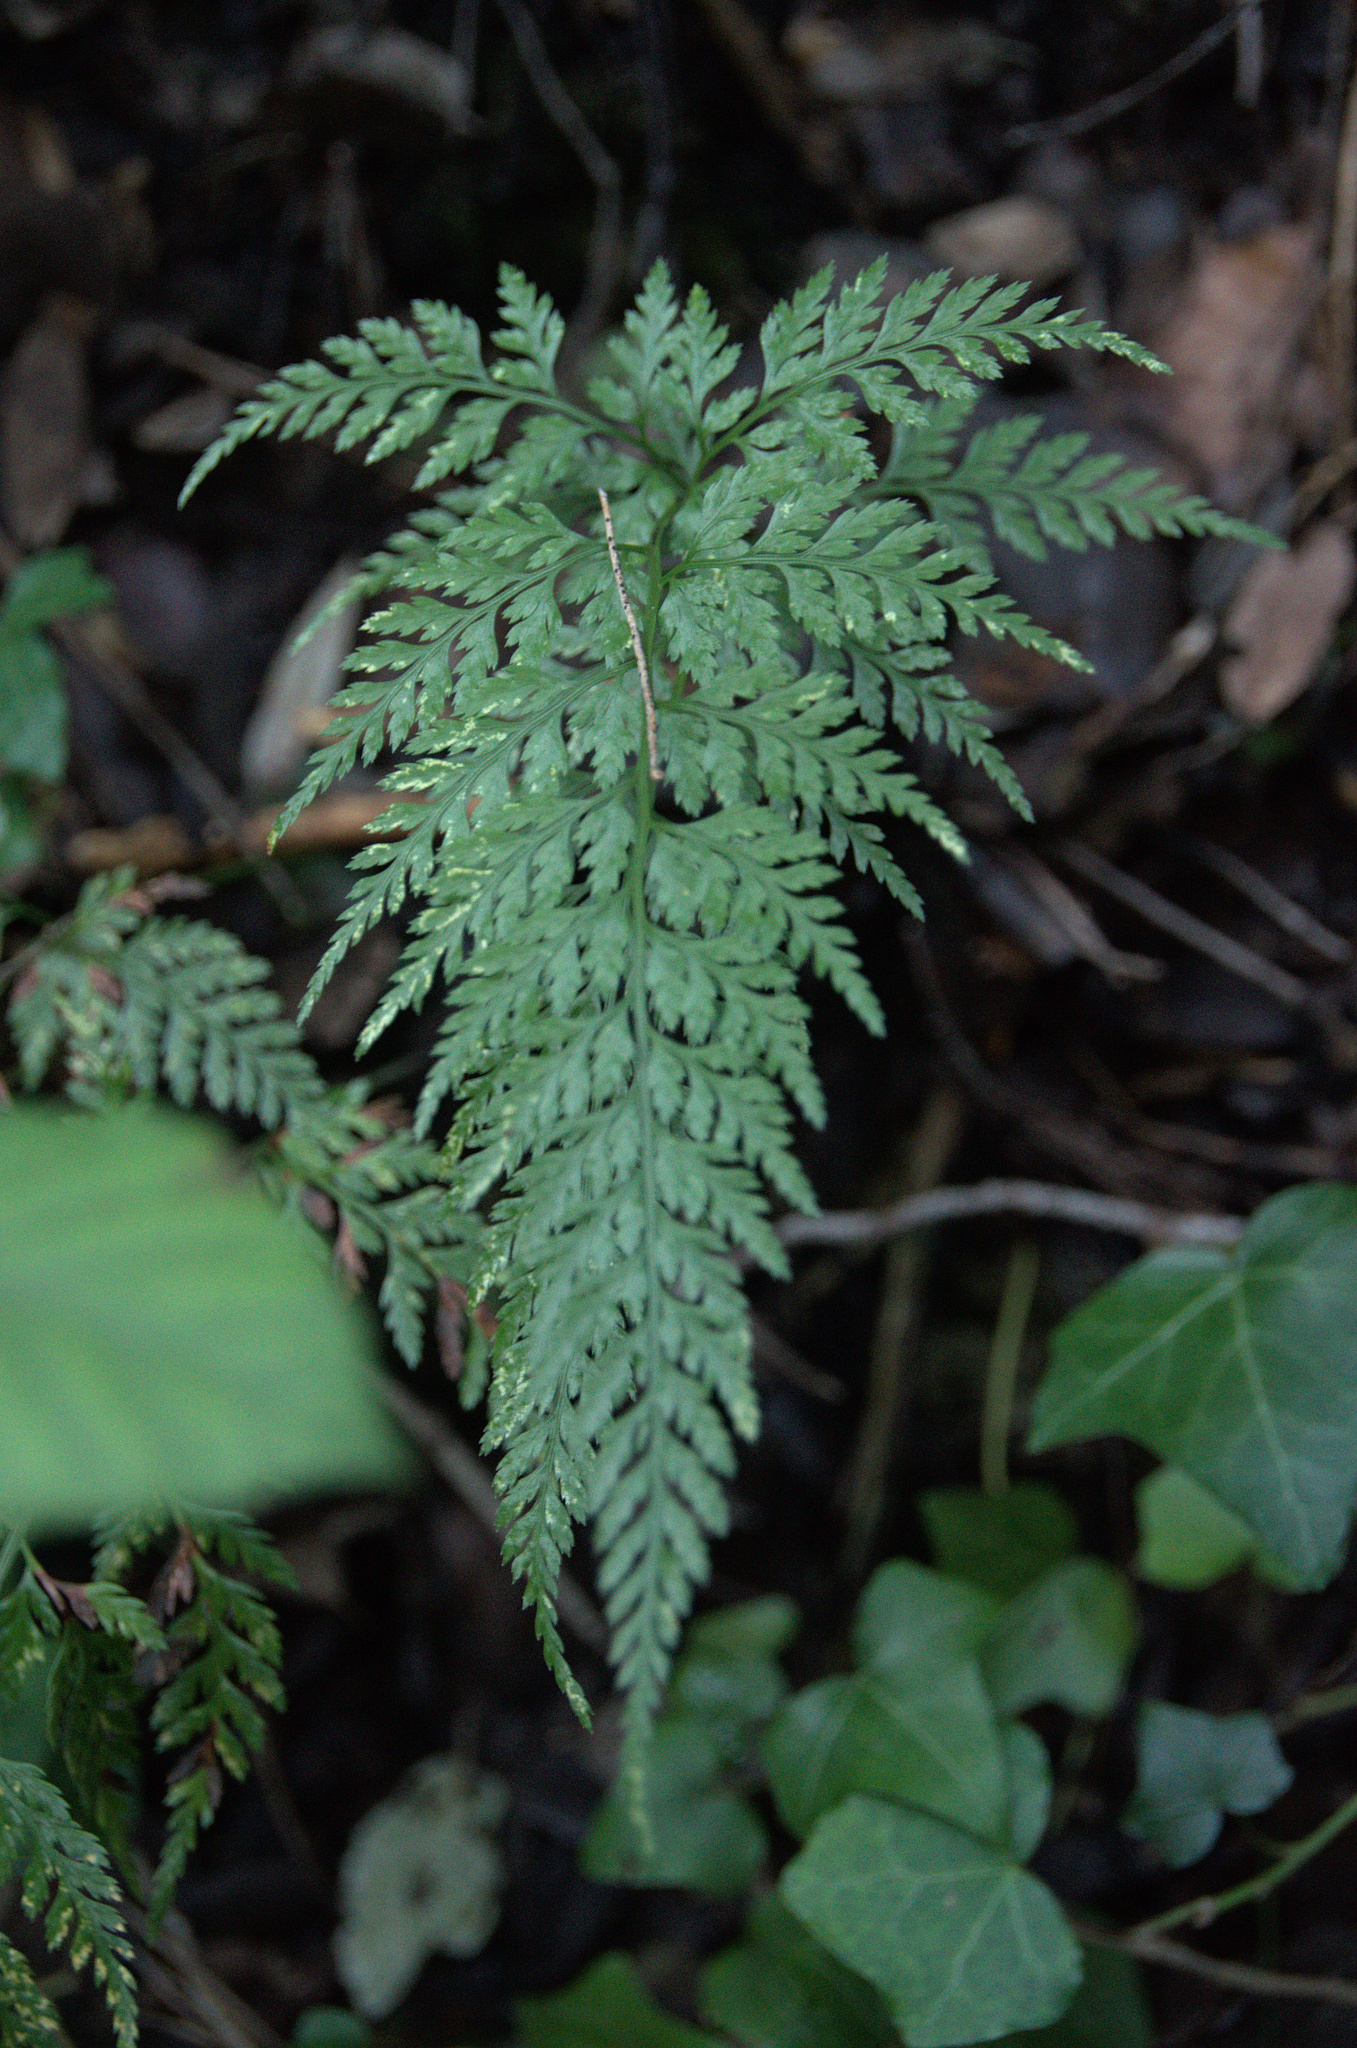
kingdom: Plantae
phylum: Tracheophyta
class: Polypodiopsida
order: Polypodiales
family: Aspleniaceae
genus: Asplenium
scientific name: Asplenium adiantum-nigrum
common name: Black spleenwort
